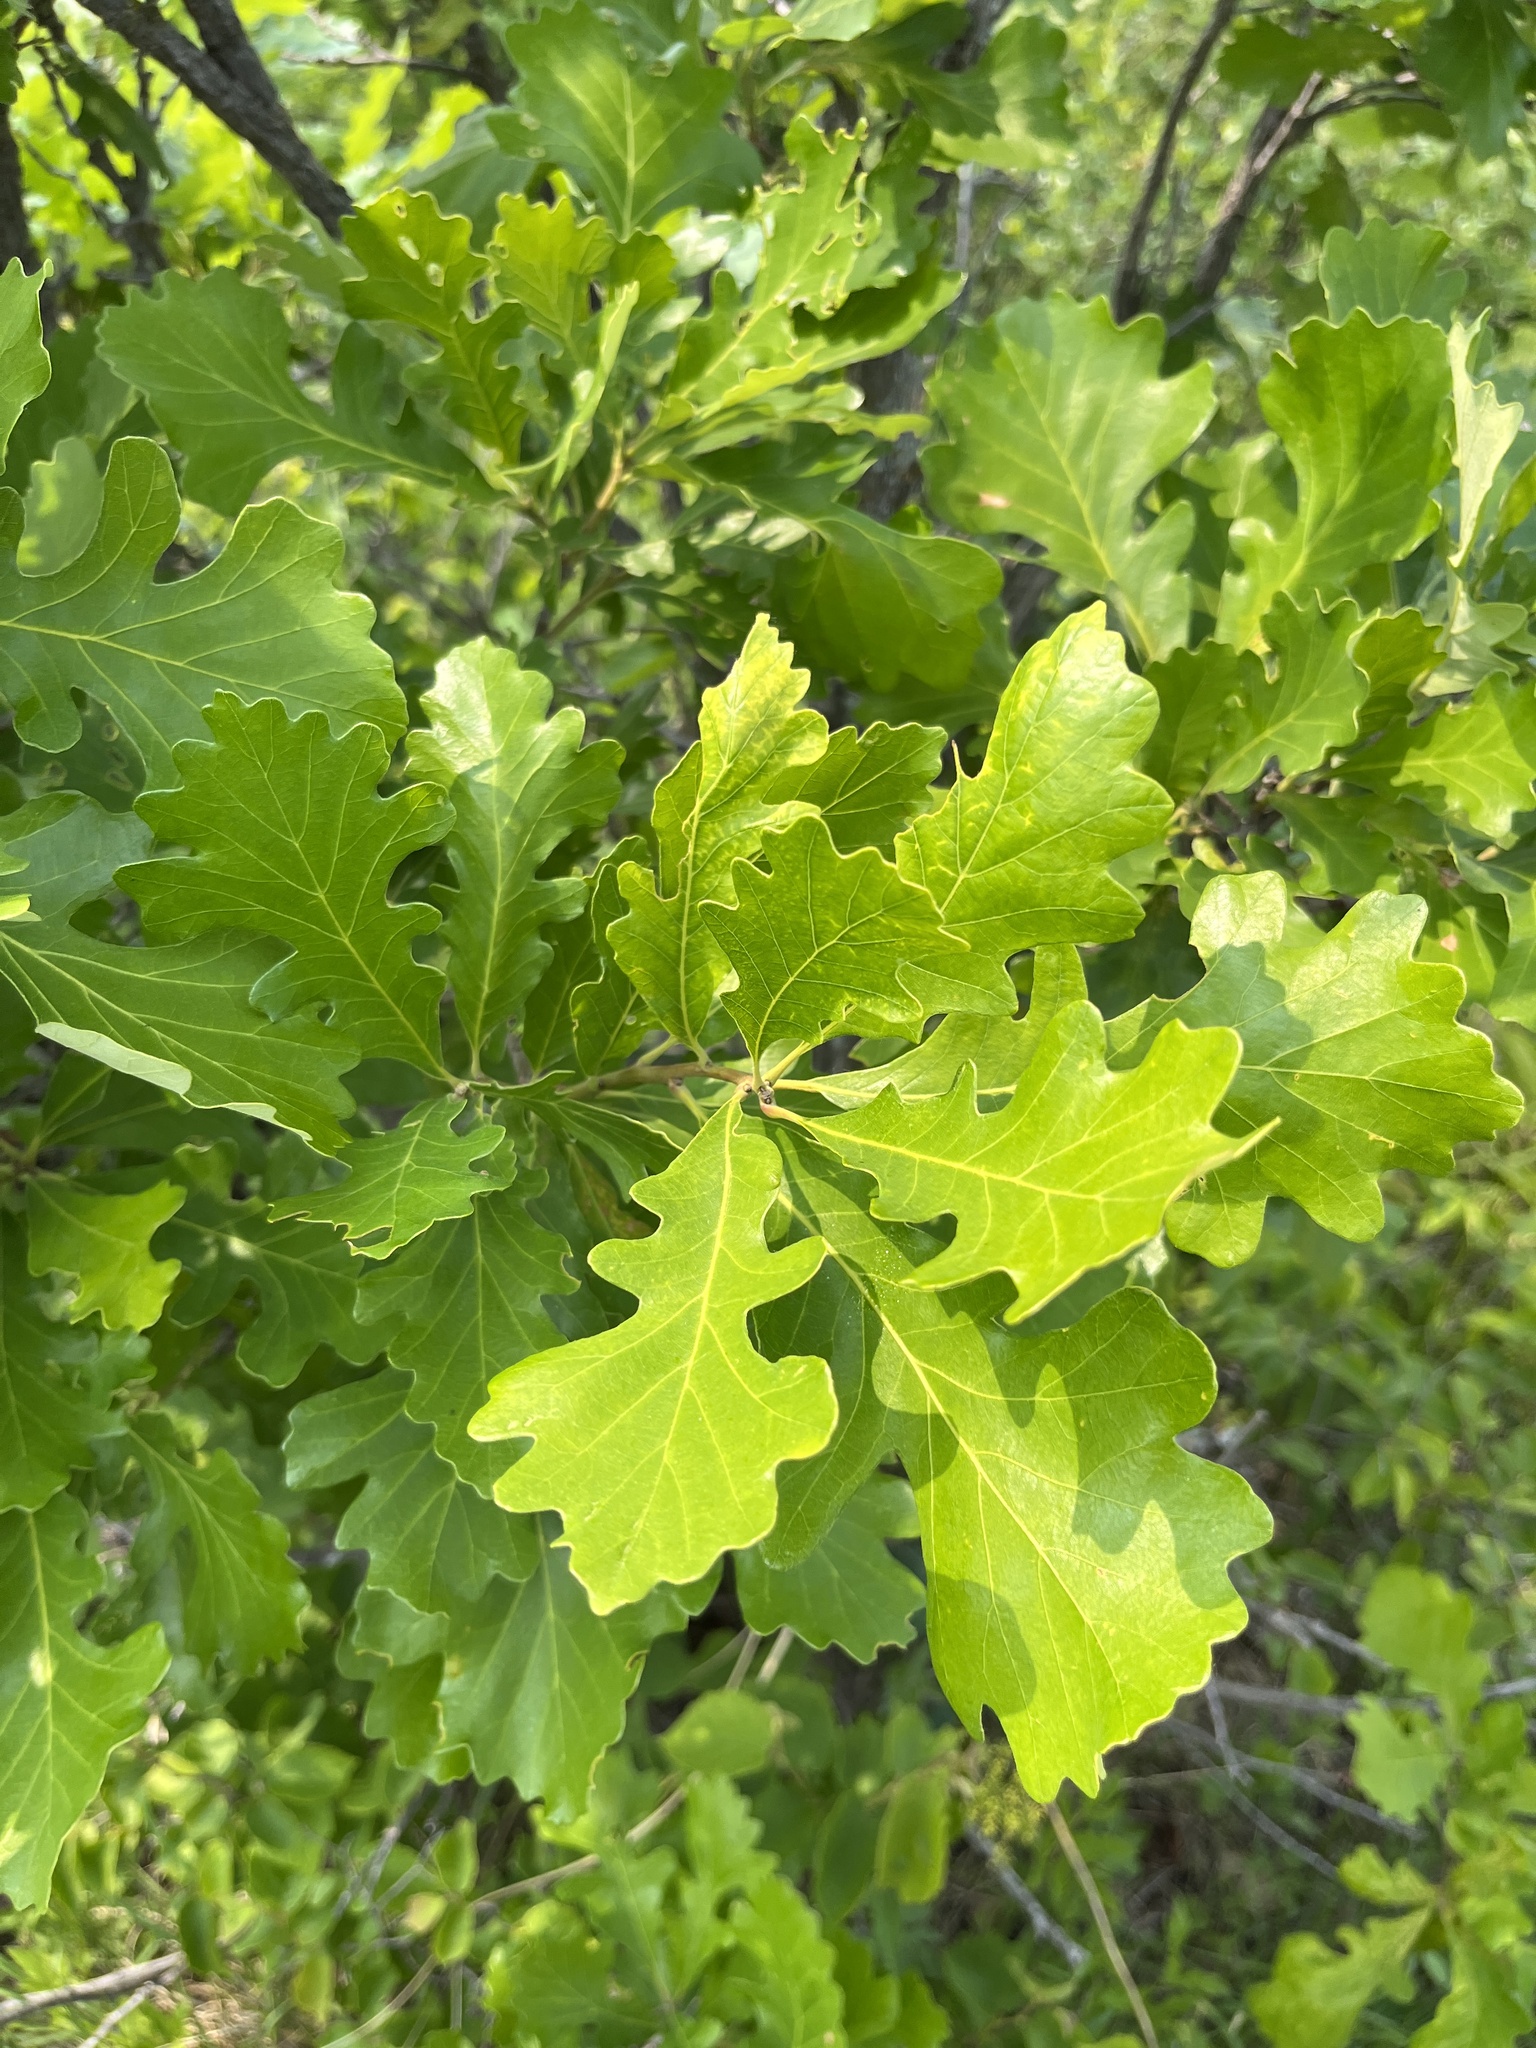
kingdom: Plantae
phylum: Tracheophyta
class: Magnoliopsida
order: Fagales
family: Fagaceae
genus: Quercus
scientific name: Quercus macrocarpa
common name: Bur oak
